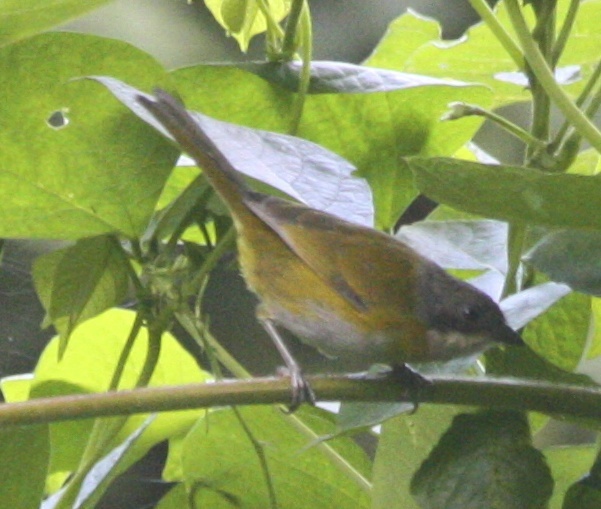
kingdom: Animalia
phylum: Chordata
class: Aves
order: Passeriformes
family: Passerellidae
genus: Chlorospingus
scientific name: Chlorospingus canigularis
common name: Ashy-throated bush-tanager
